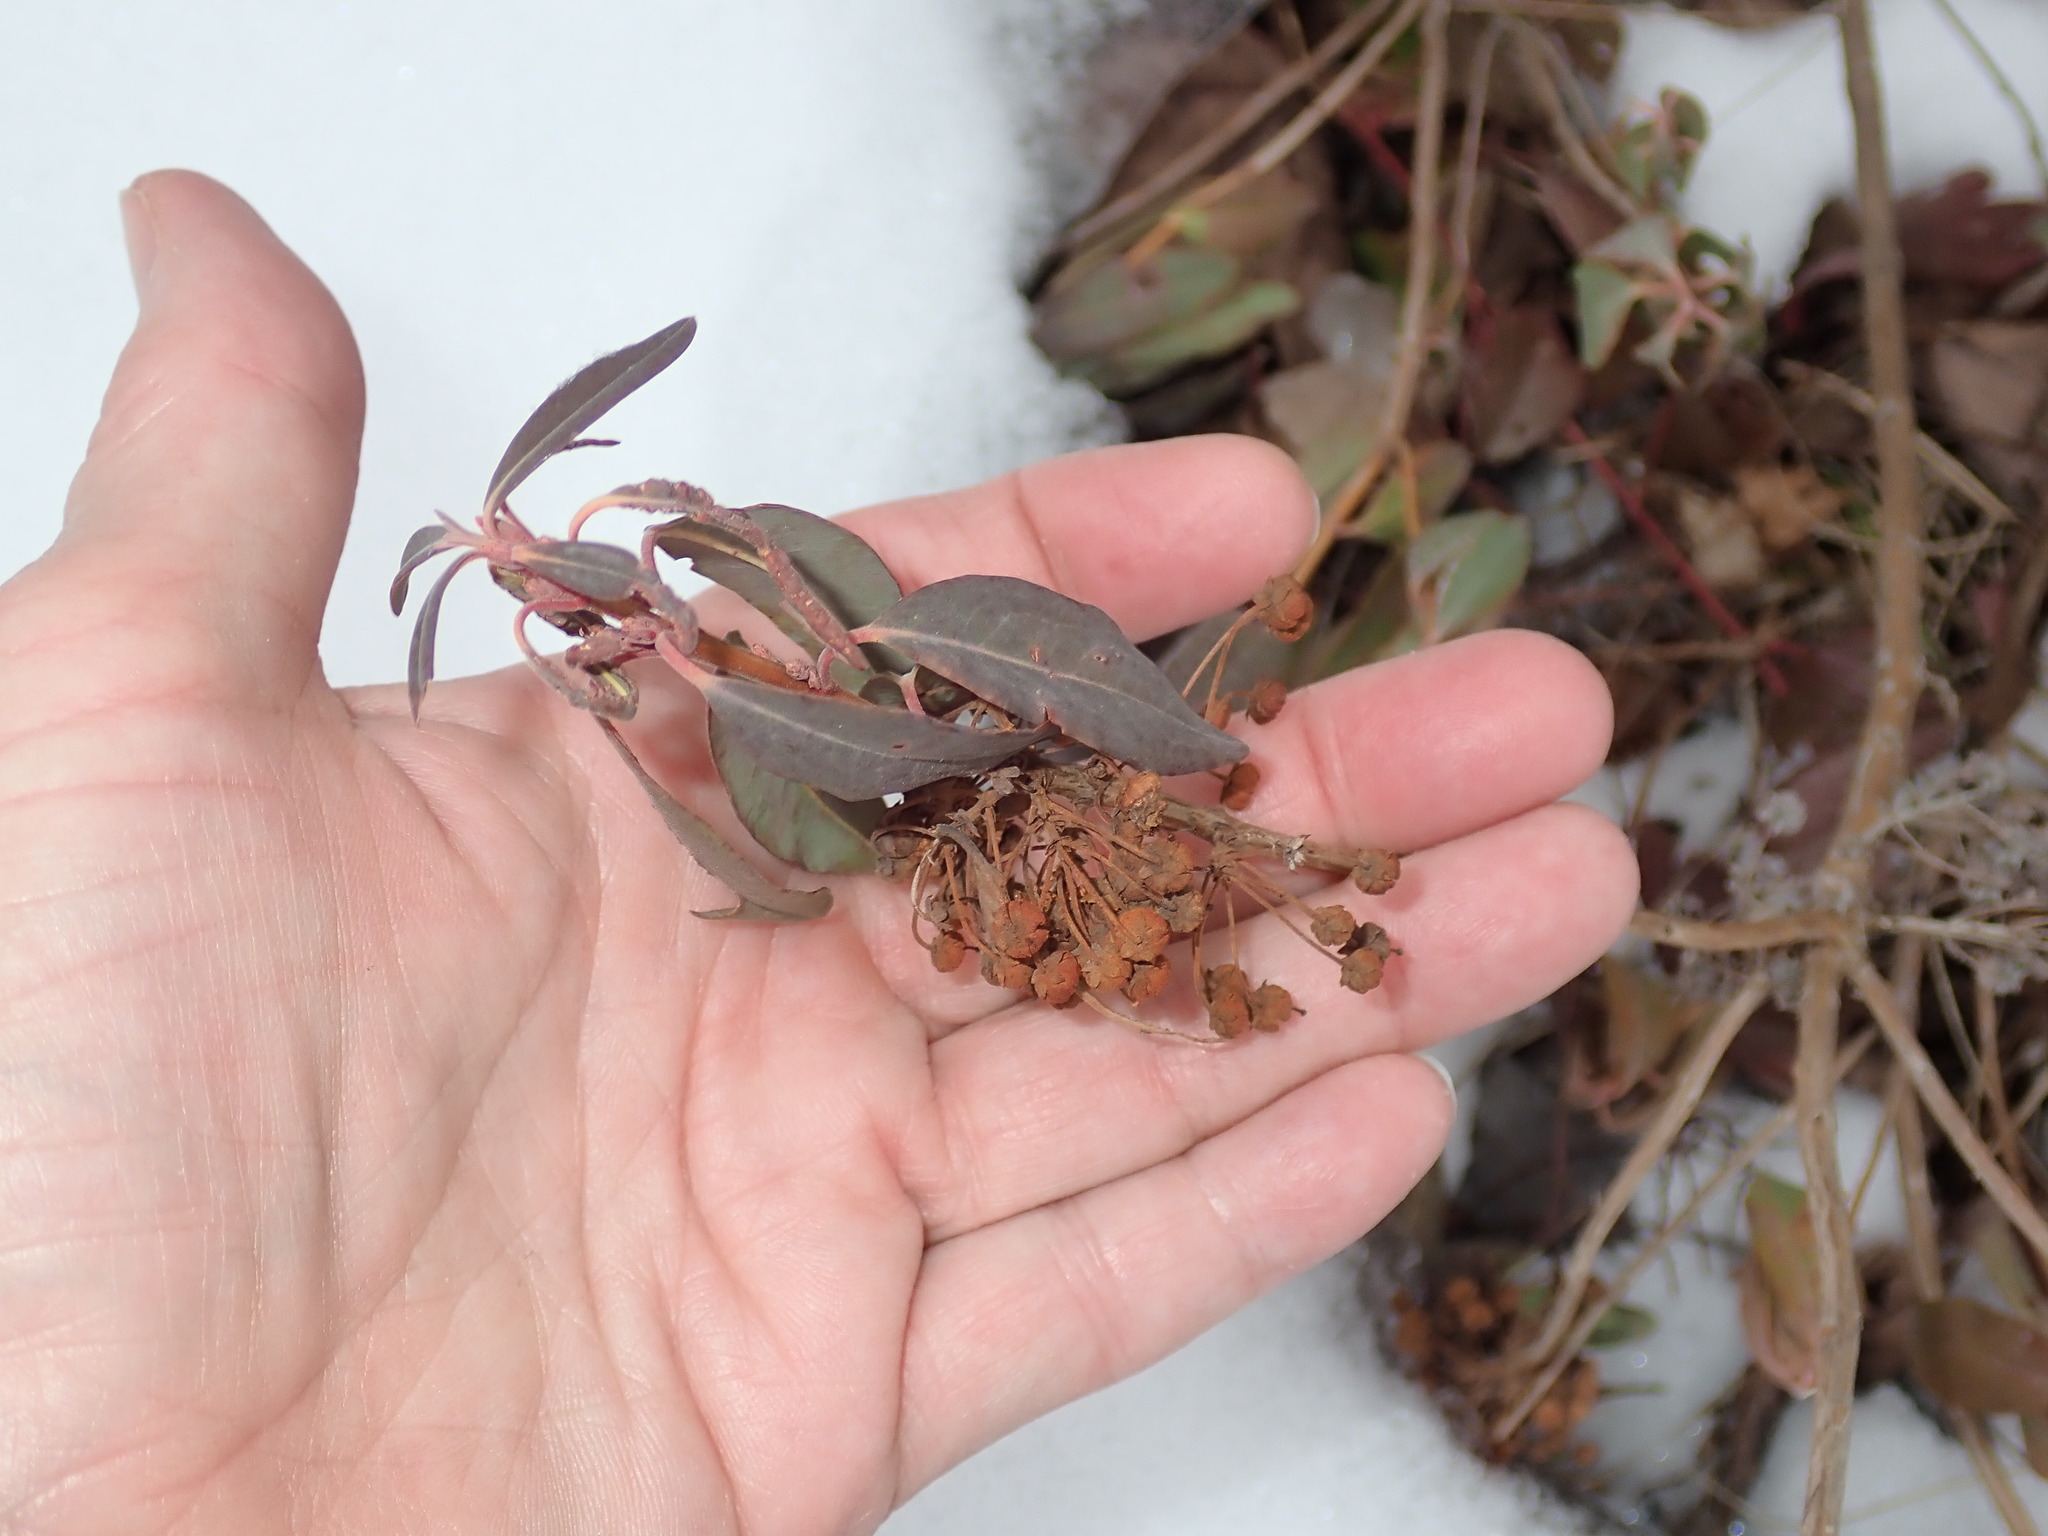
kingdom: Plantae
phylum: Tracheophyta
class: Magnoliopsida
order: Ericales
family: Ericaceae
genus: Kalmia
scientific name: Kalmia angustifolia
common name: Sheep-laurel
